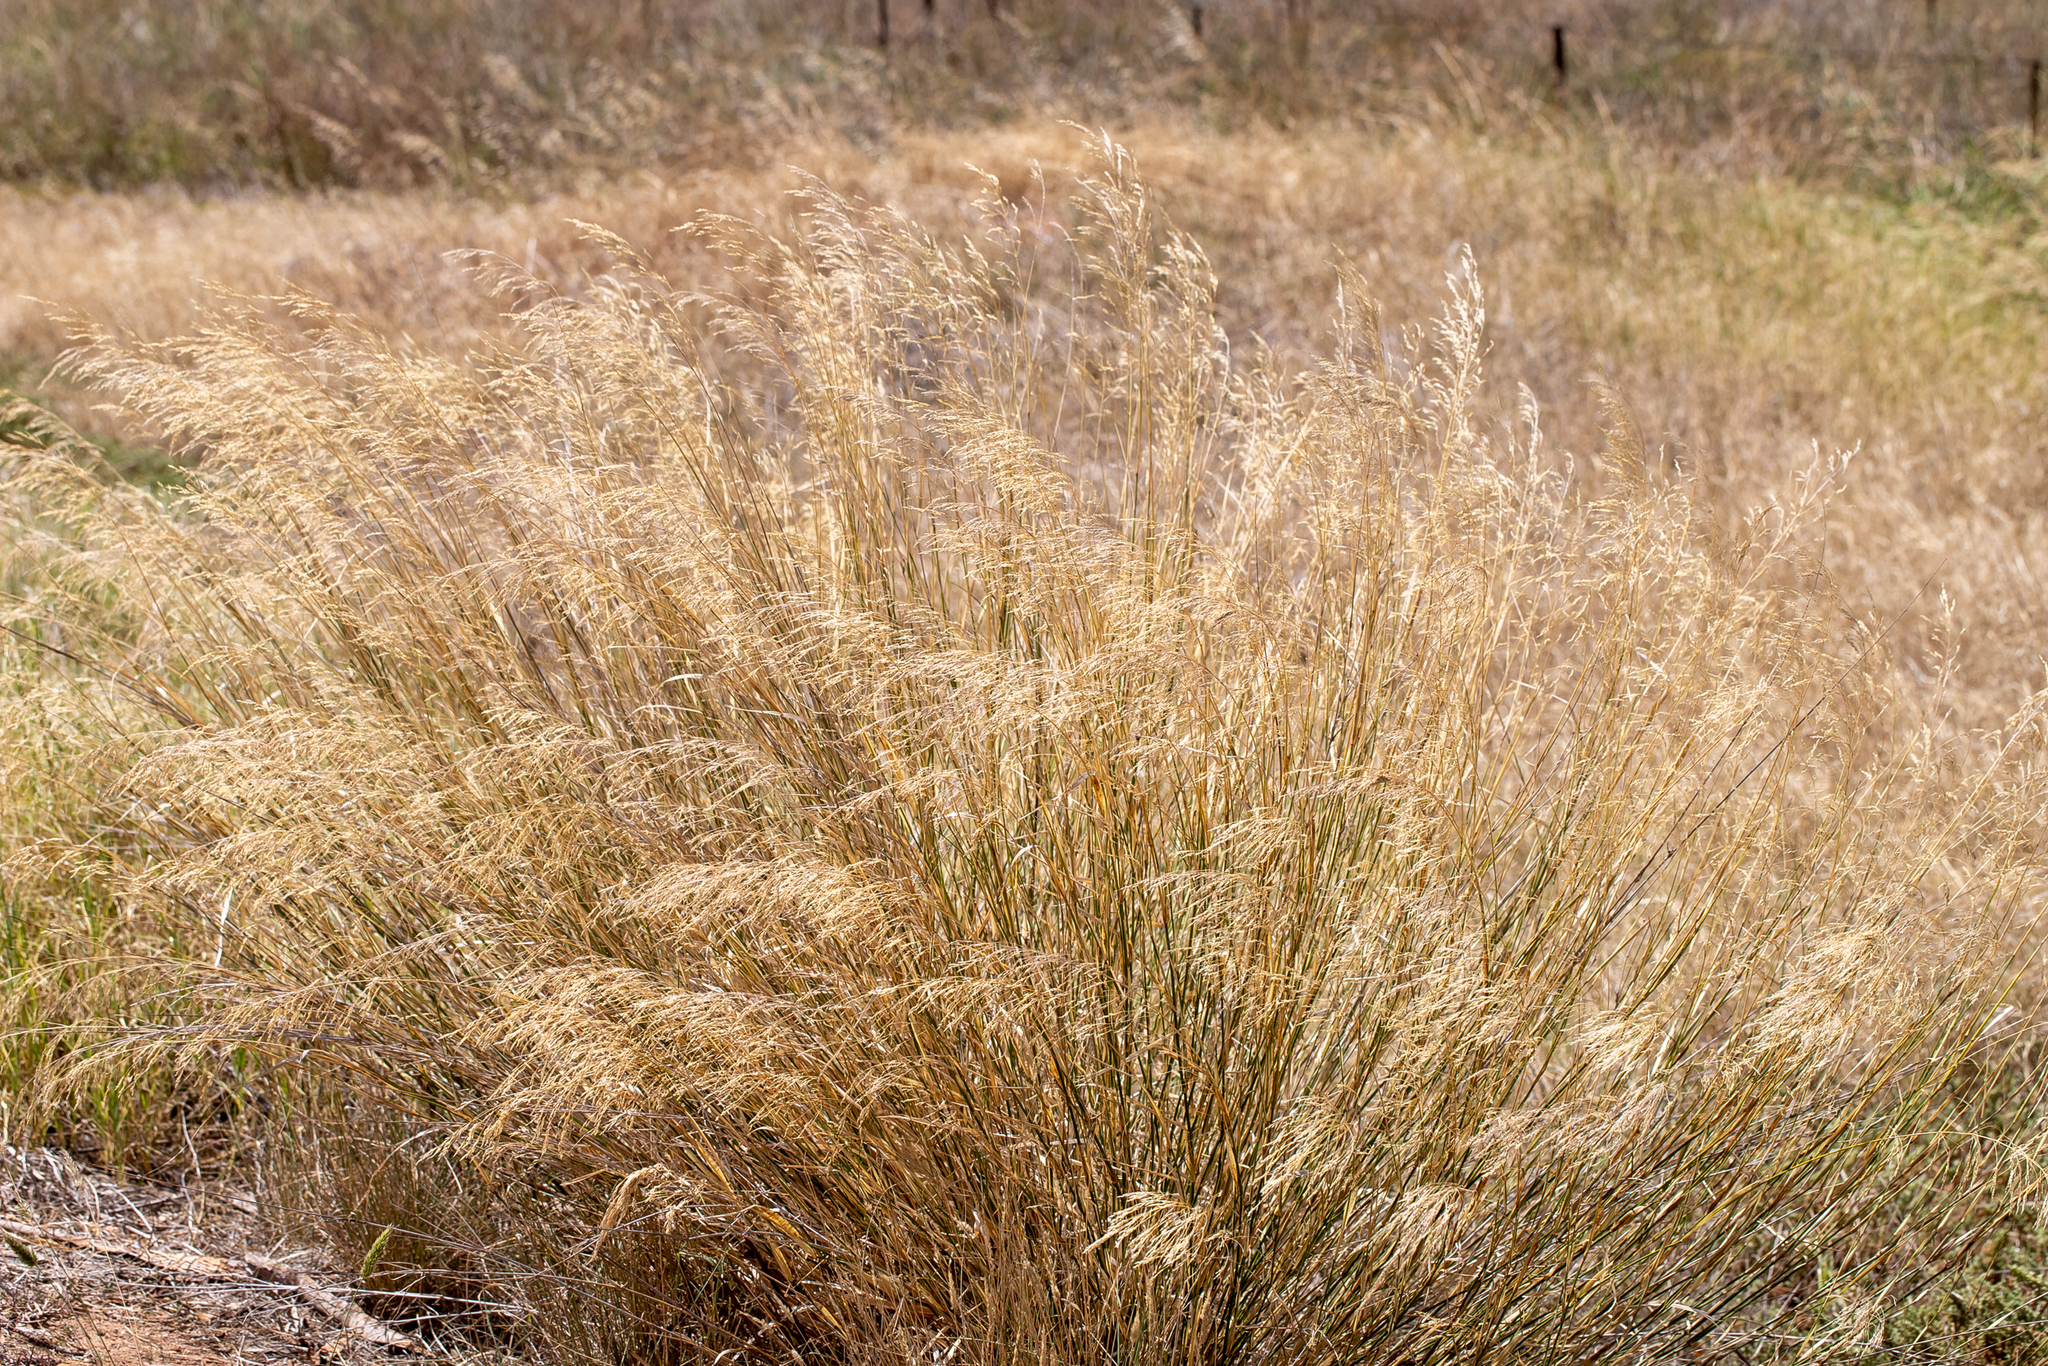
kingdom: Plantae
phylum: Tracheophyta
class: Liliopsida
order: Poales
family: Poaceae
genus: Oloptum
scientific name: Oloptum miliaceum
